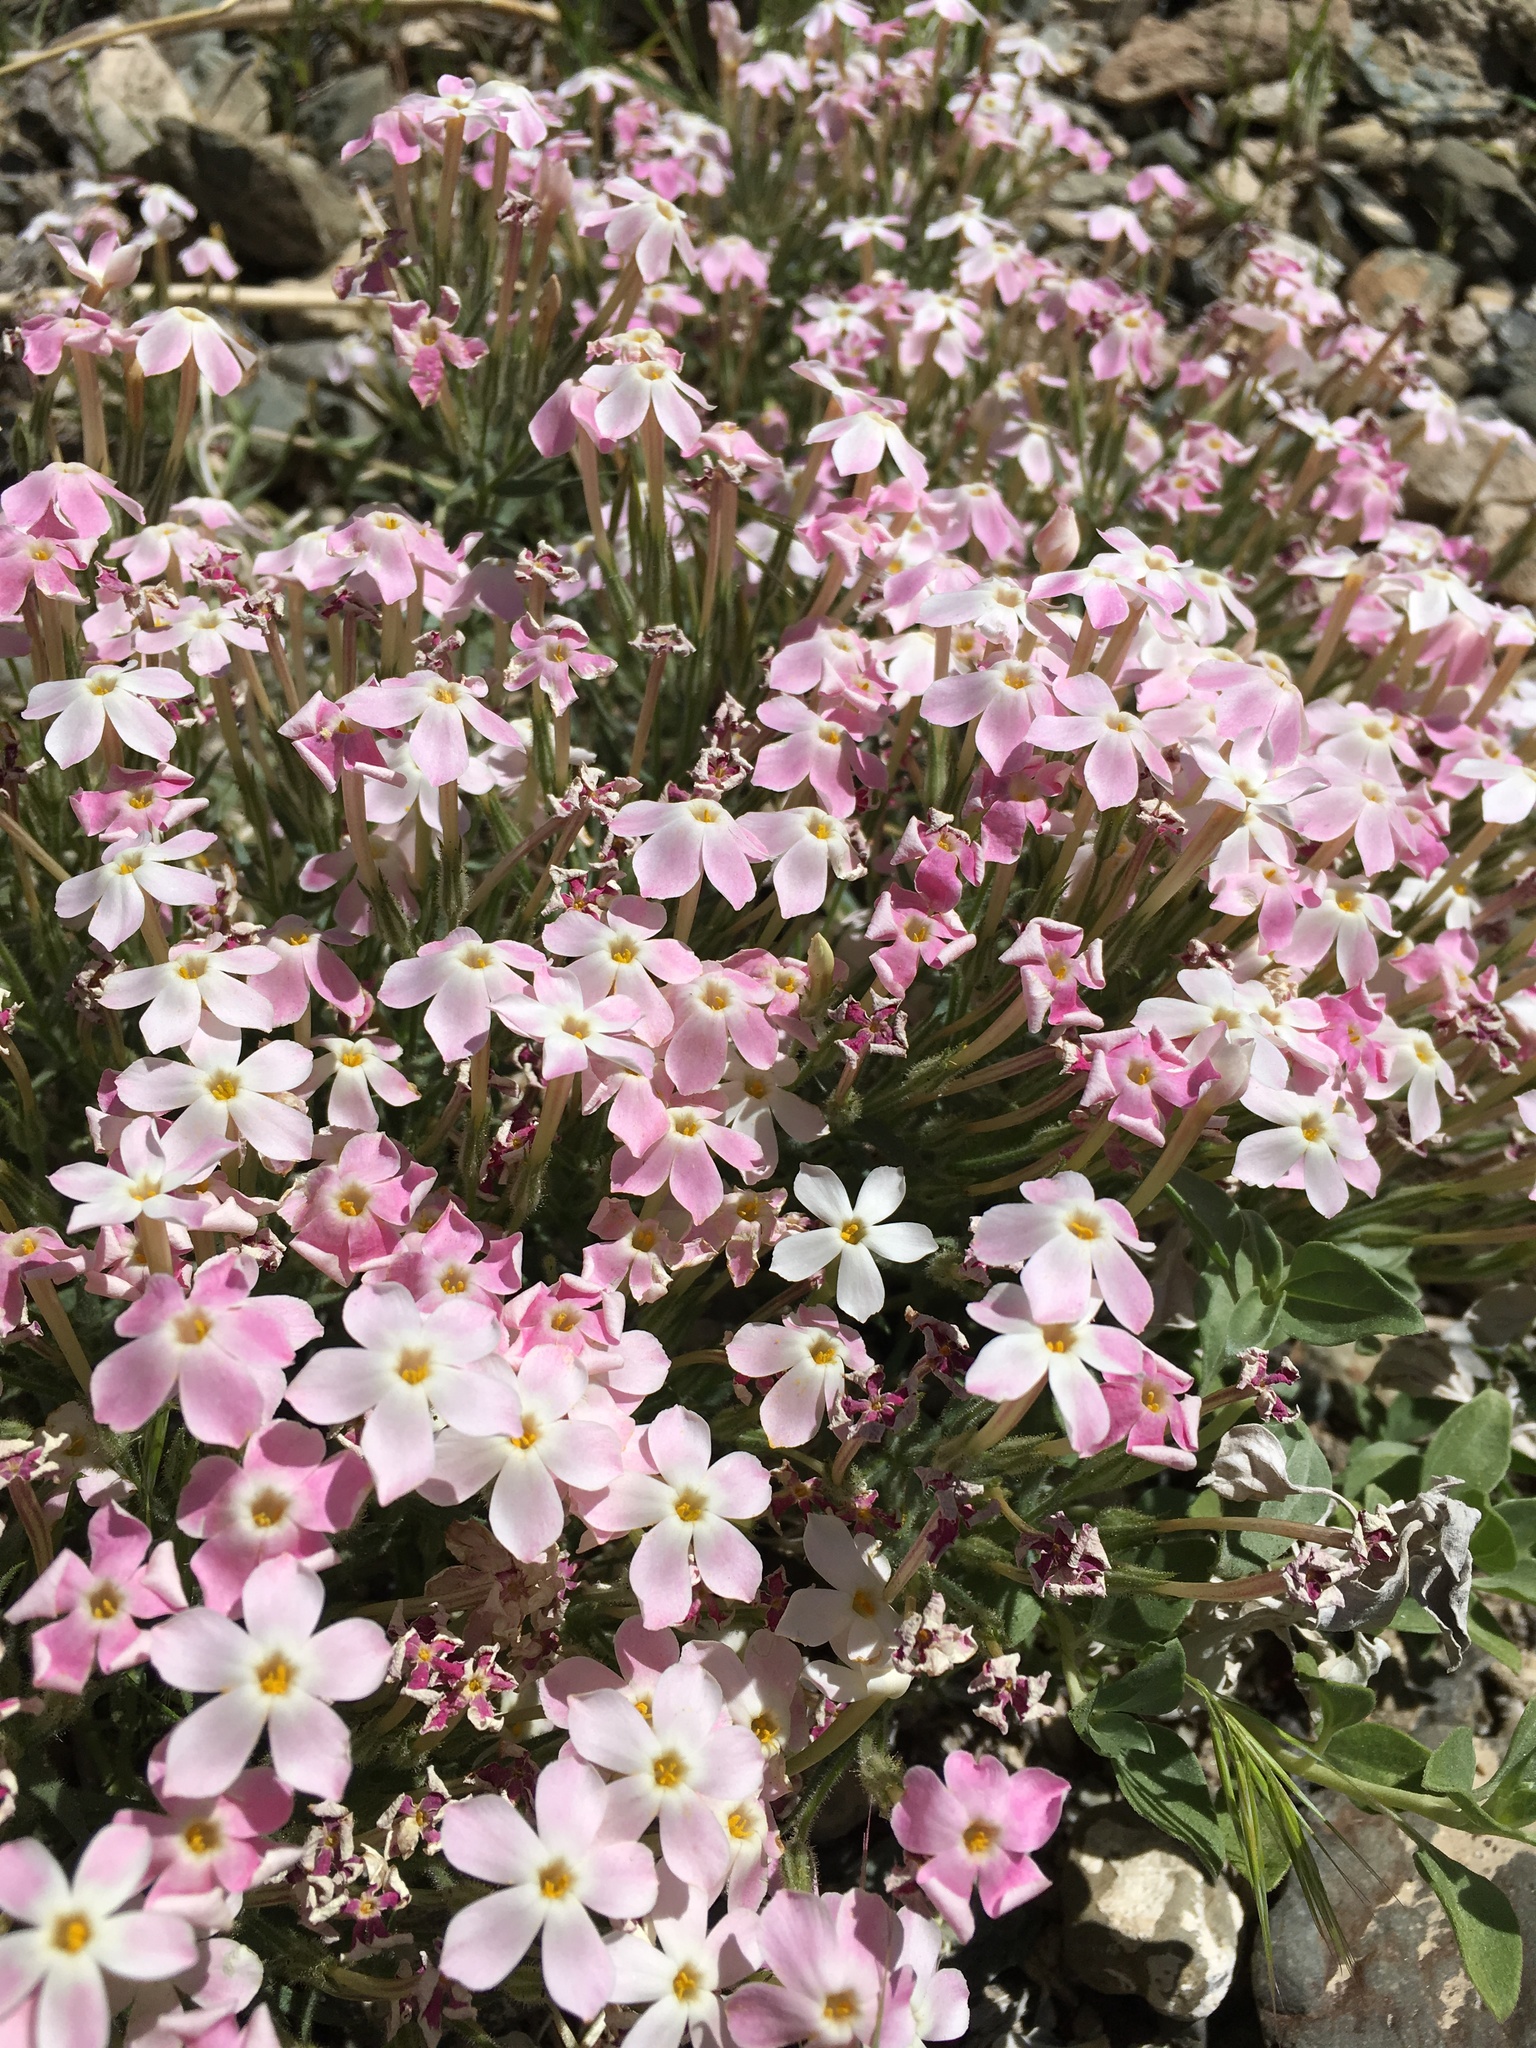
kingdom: Plantae
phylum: Tracheophyta
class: Magnoliopsida
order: Ericales
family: Polemoniaceae
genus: Phlox
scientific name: Phlox longifolia
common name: Longleaf phlox
